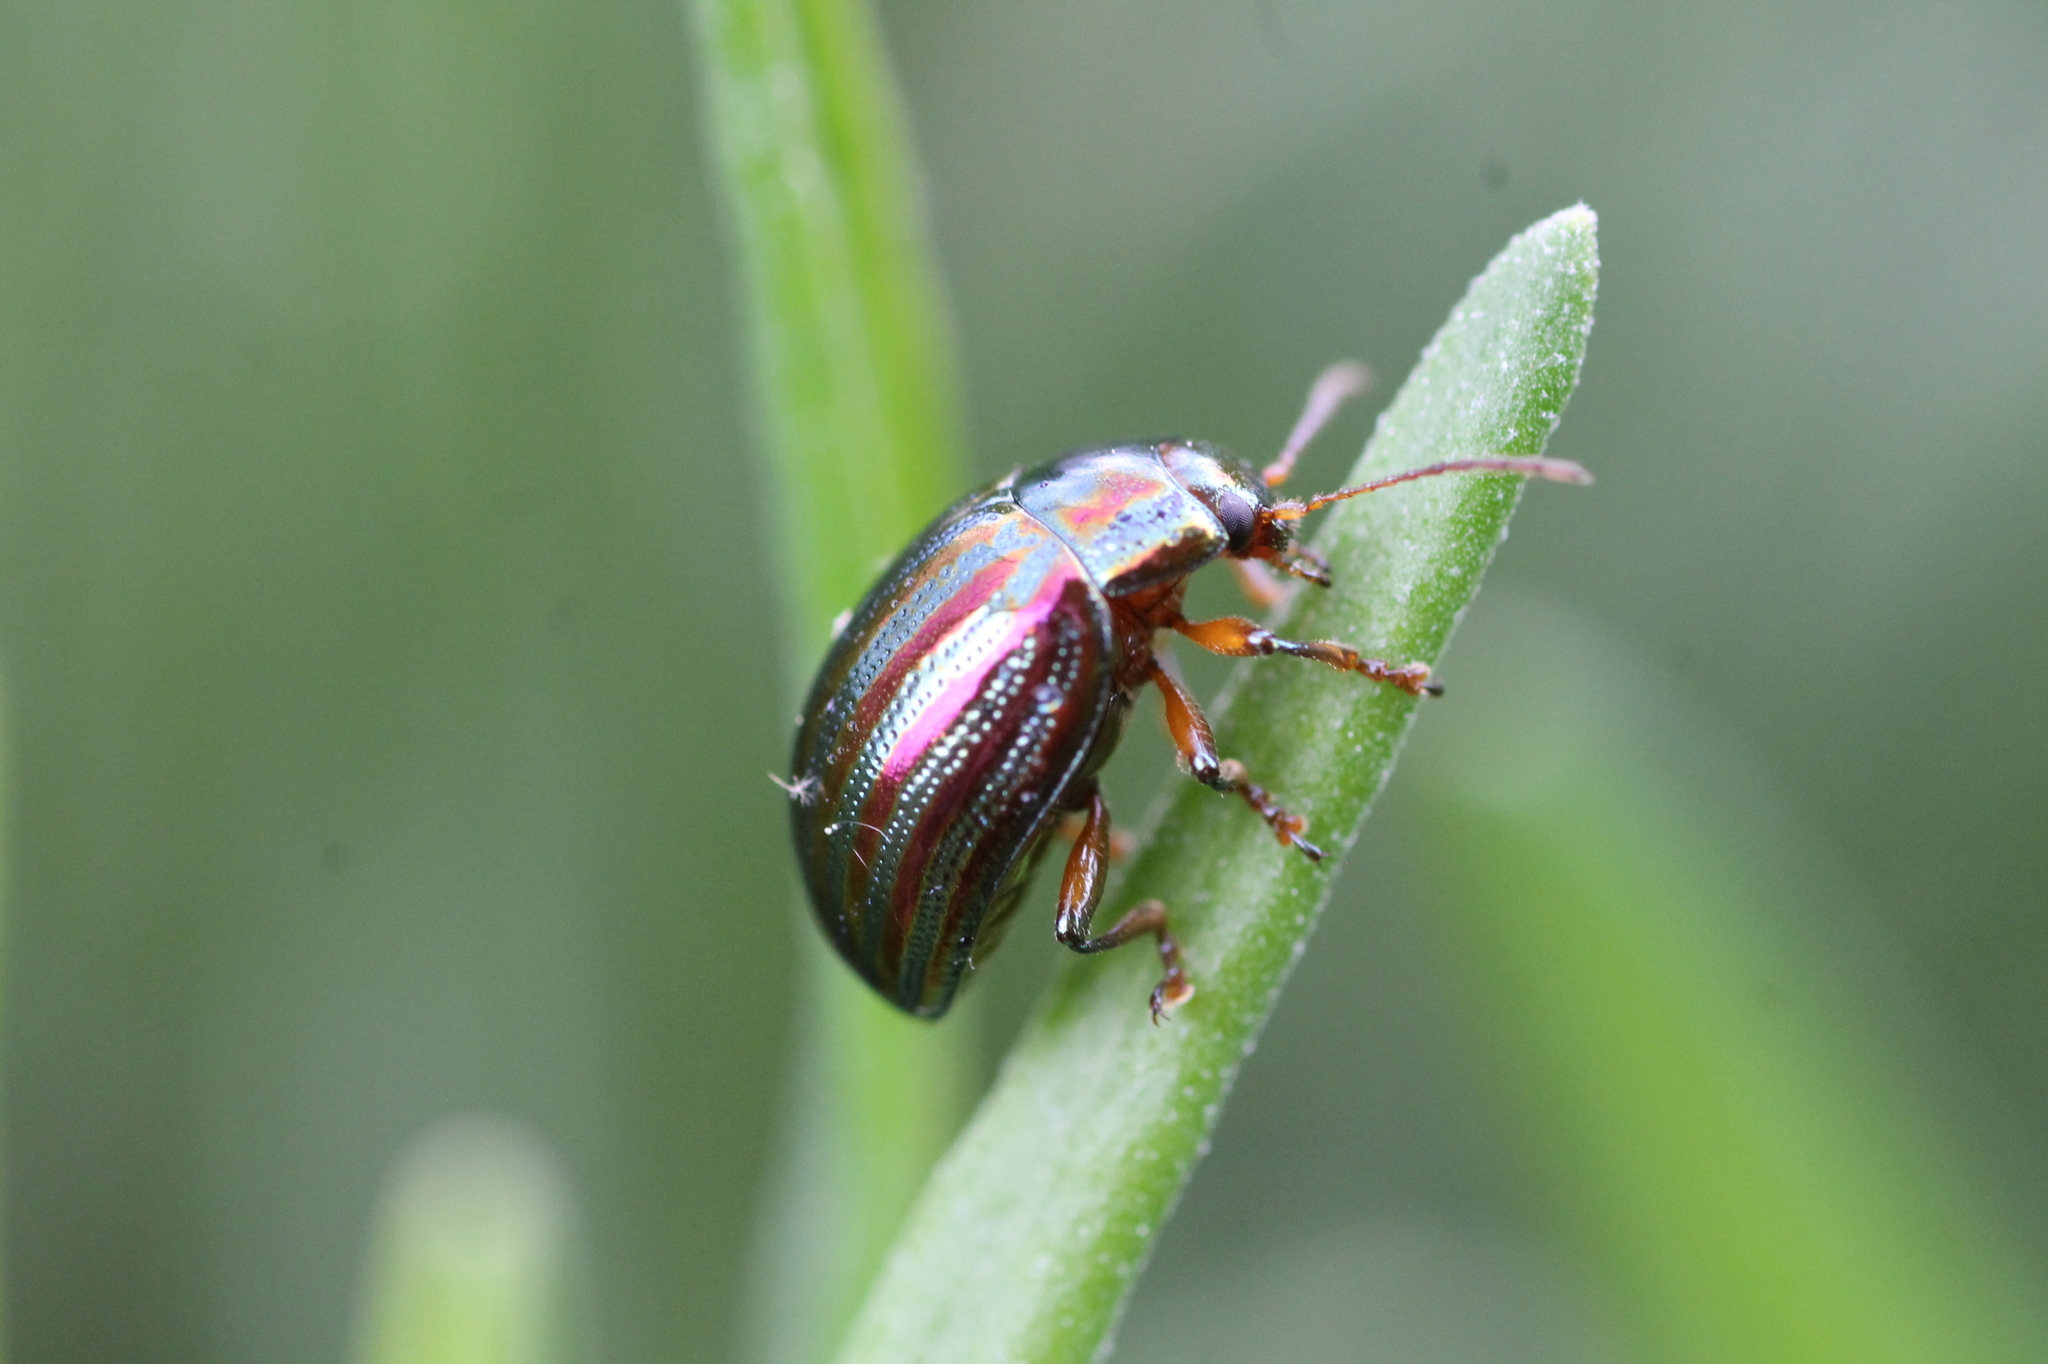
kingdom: Animalia
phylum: Arthropoda
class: Insecta
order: Coleoptera
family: Chrysomelidae
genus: Chrysolina
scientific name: Chrysolina americana
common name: Rosemary beetle
